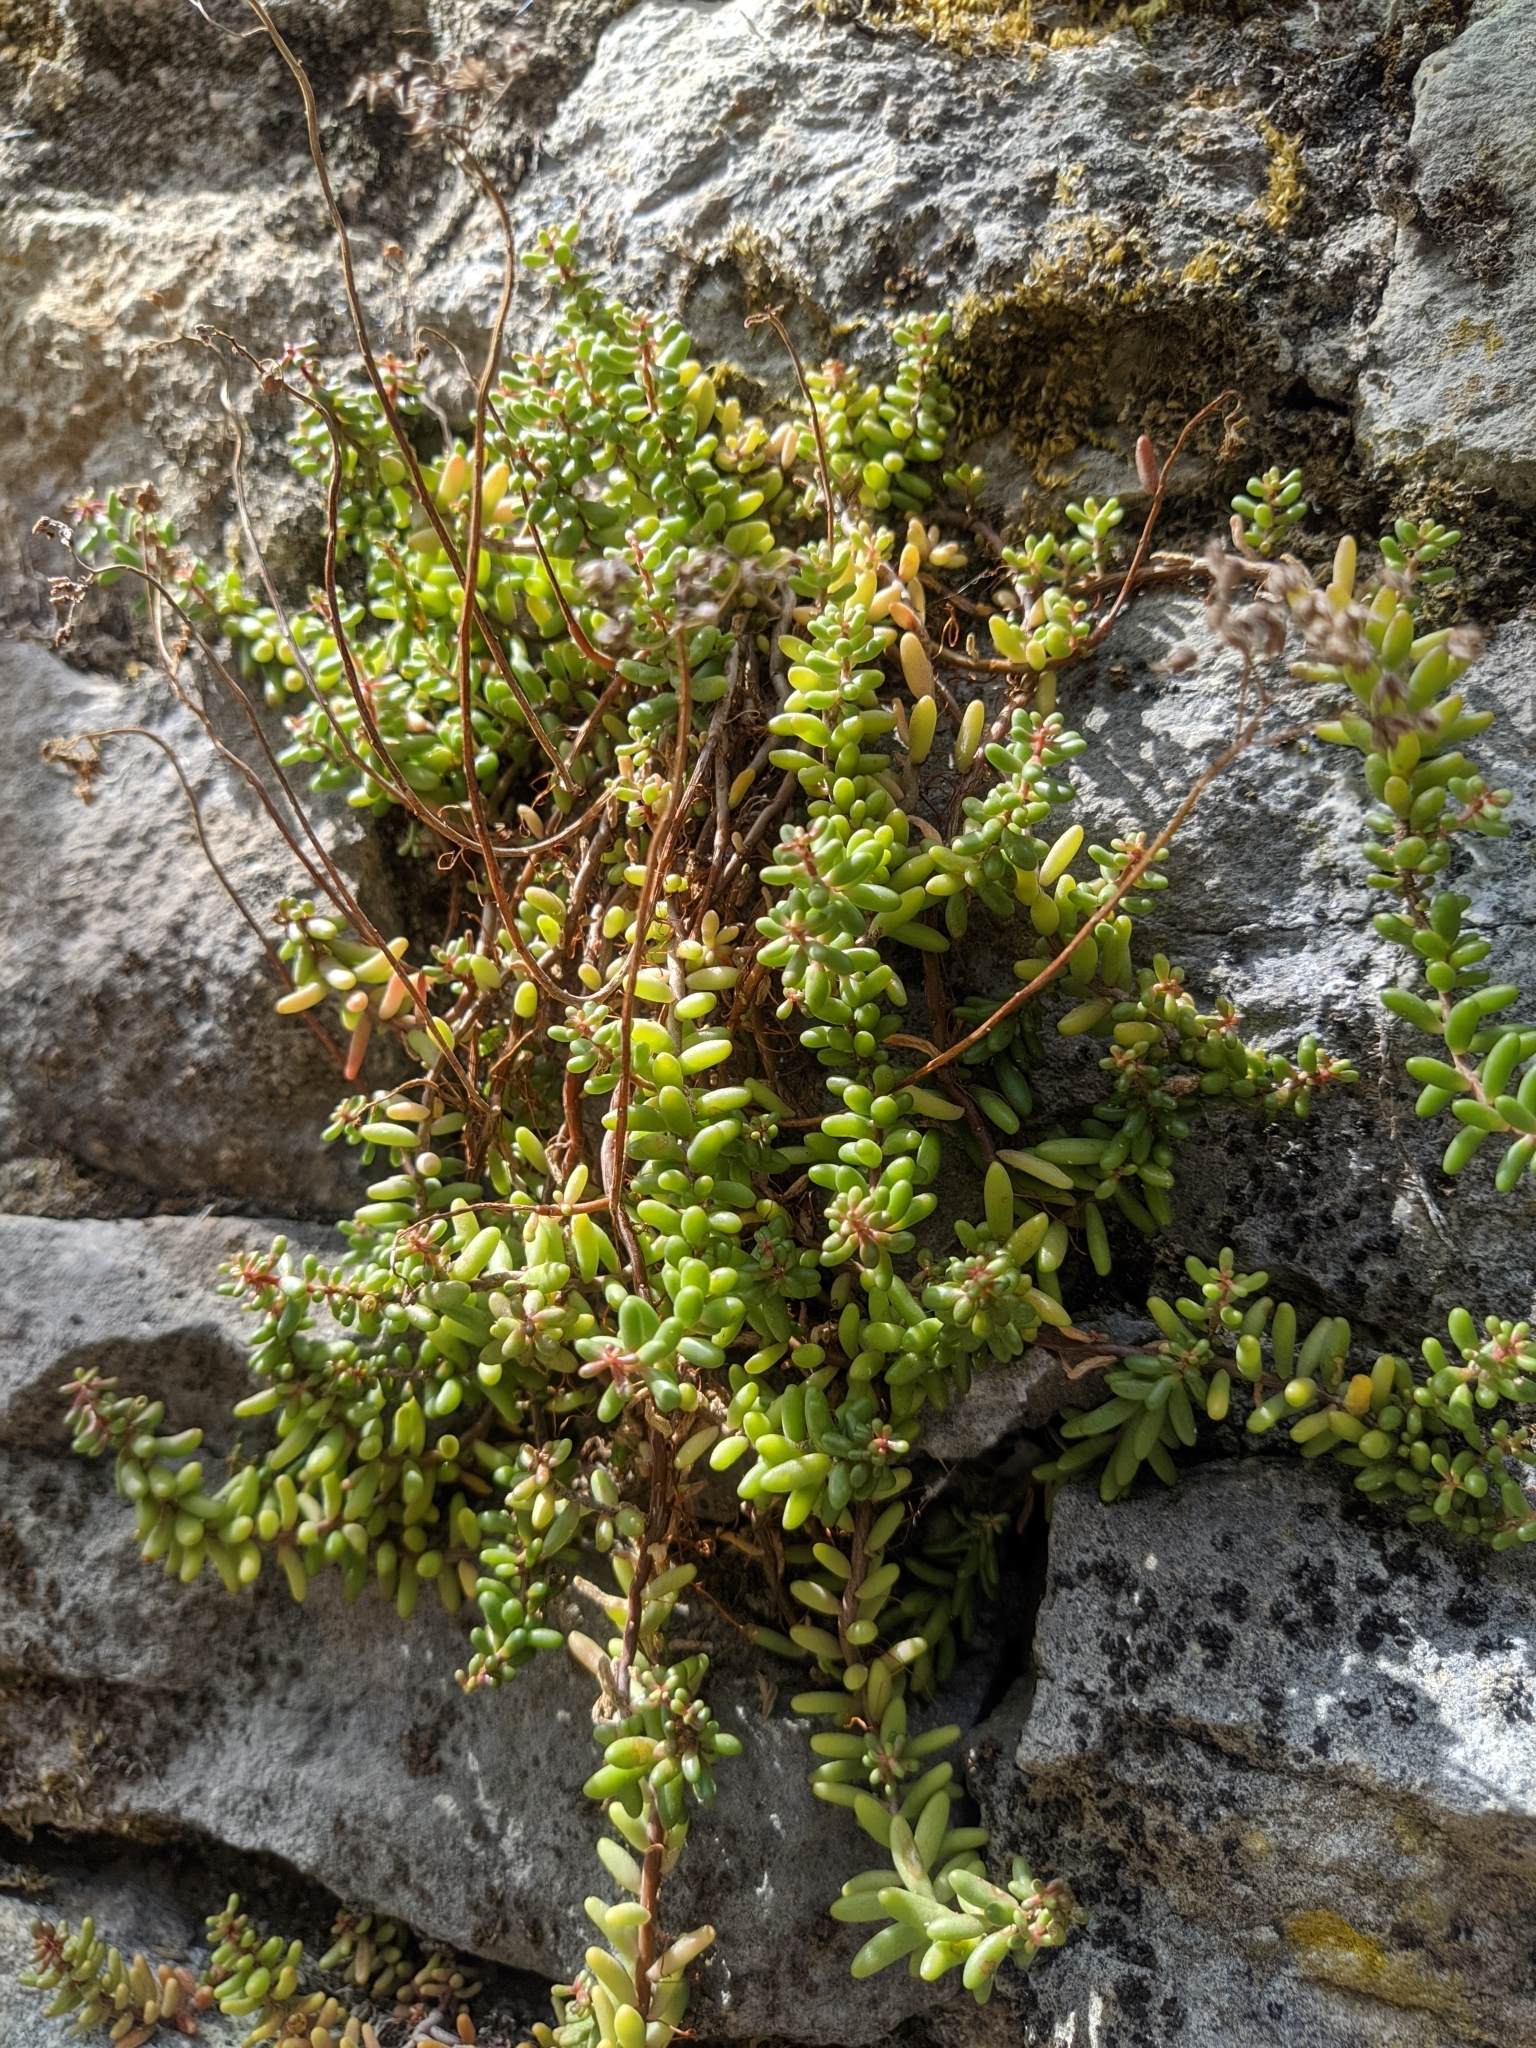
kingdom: Plantae
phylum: Tracheophyta
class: Magnoliopsida
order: Saxifragales
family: Crassulaceae
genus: Sedum
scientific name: Sedum album
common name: White stonecrop
